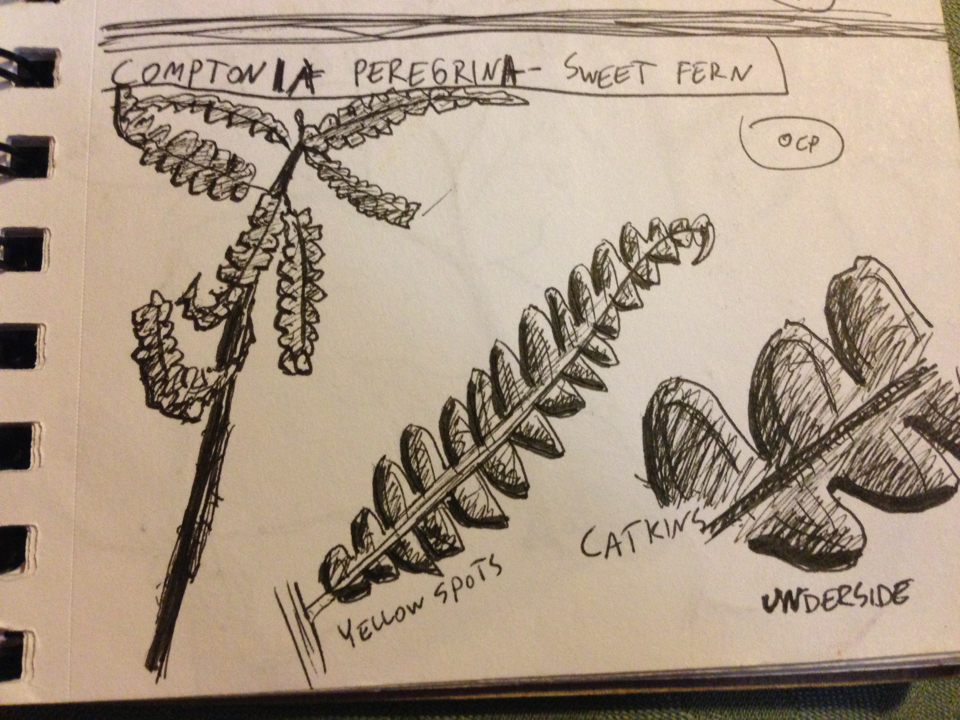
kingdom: Plantae
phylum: Tracheophyta
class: Magnoliopsida
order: Fagales
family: Myricaceae
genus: Comptonia
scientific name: Comptonia peregrina
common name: Sweet-fern
